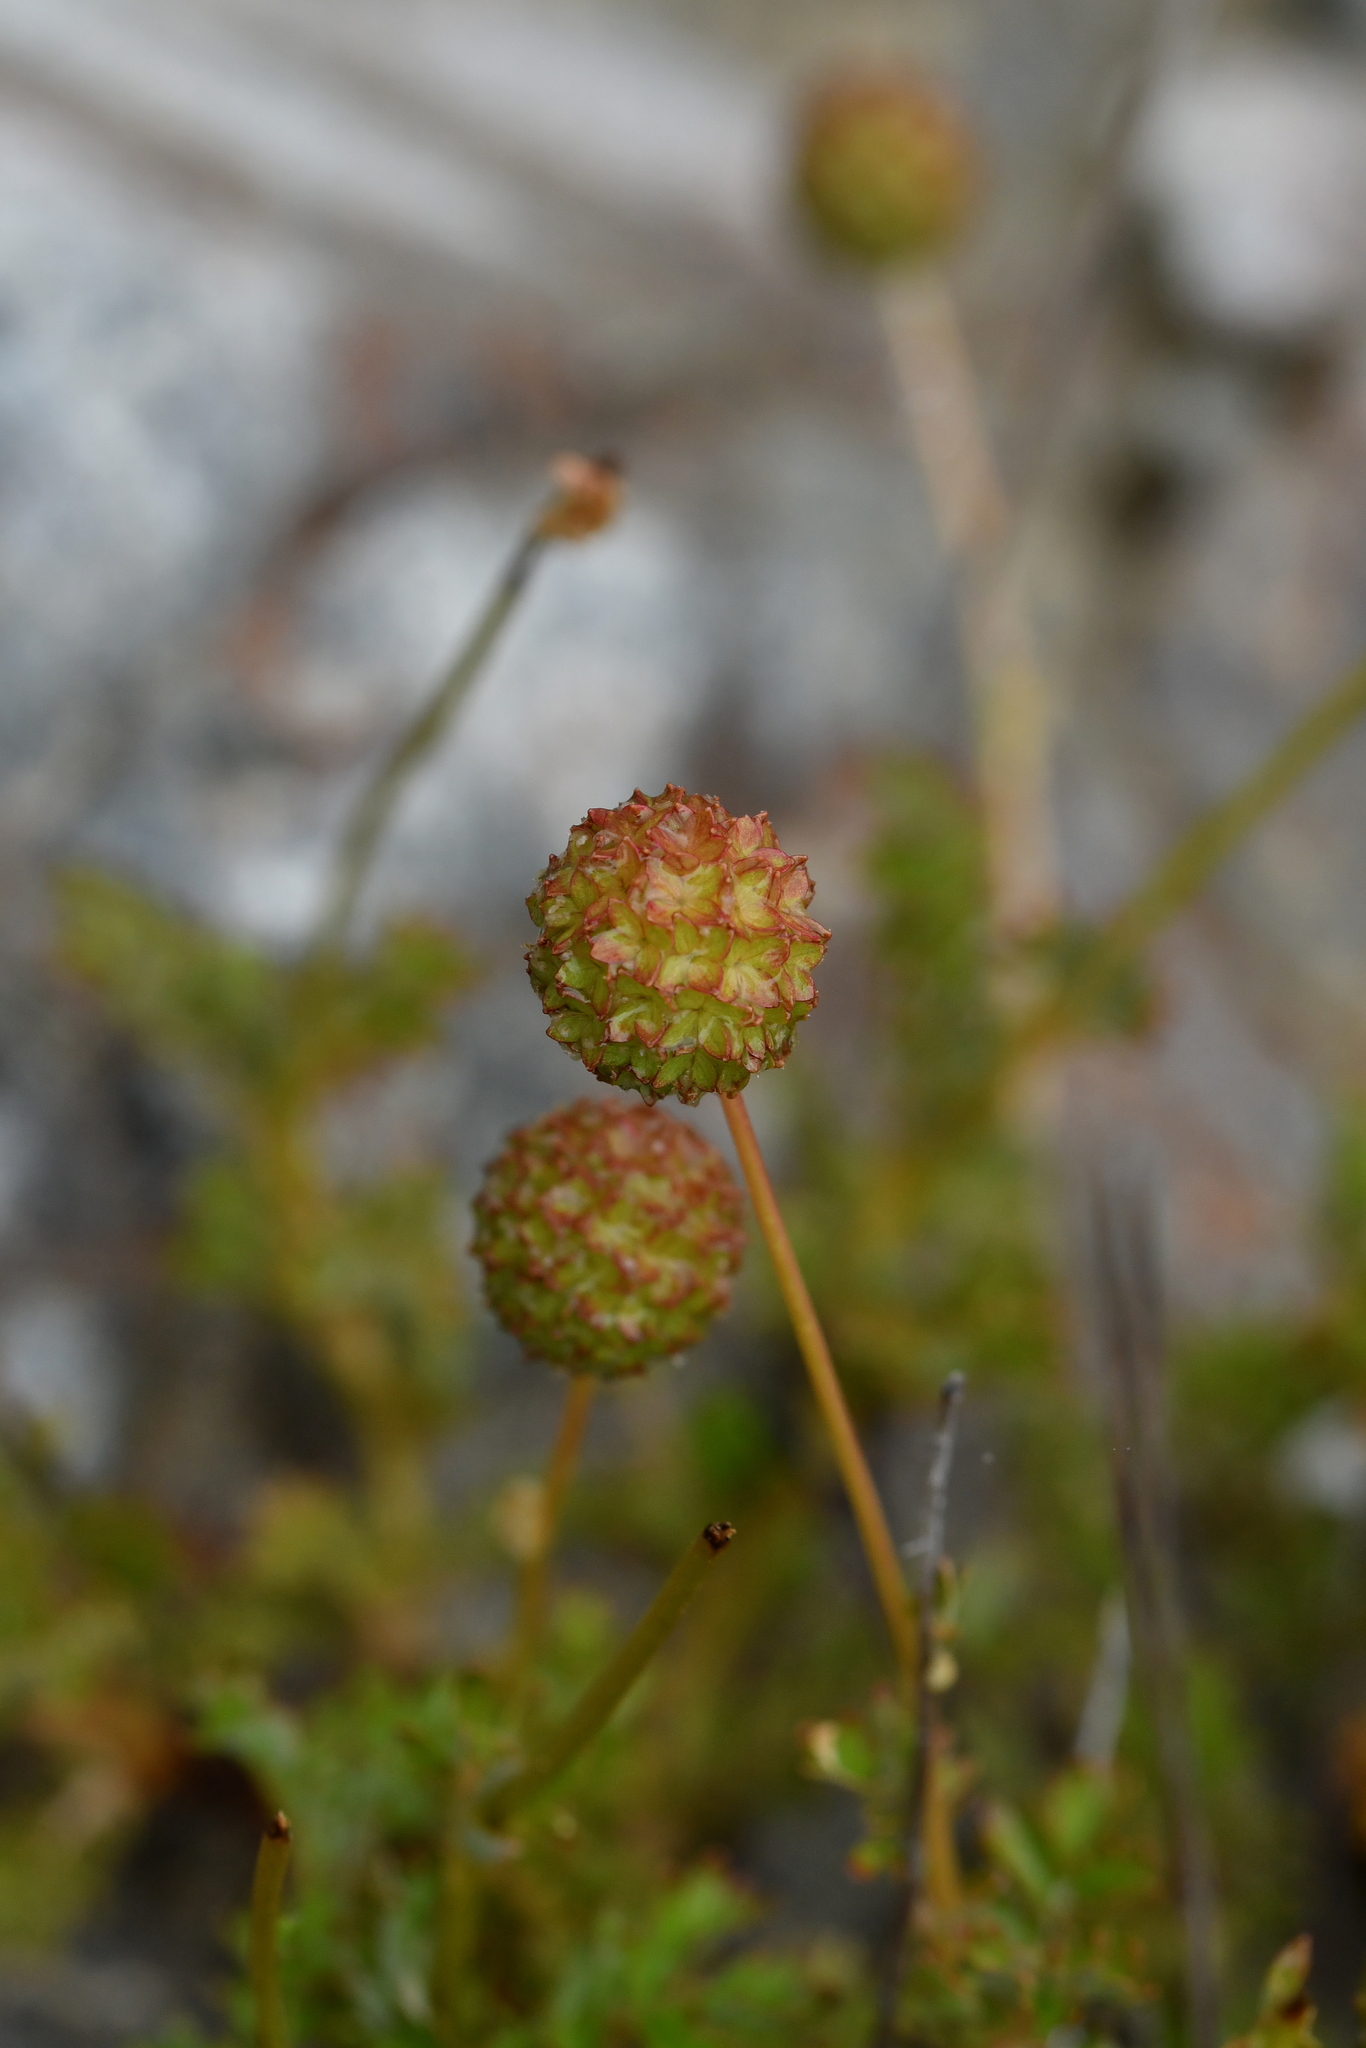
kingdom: Plantae
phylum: Tracheophyta
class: Magnoliopsida
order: Rosales
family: Rosaceae
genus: Acaena
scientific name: Acaena glabra
